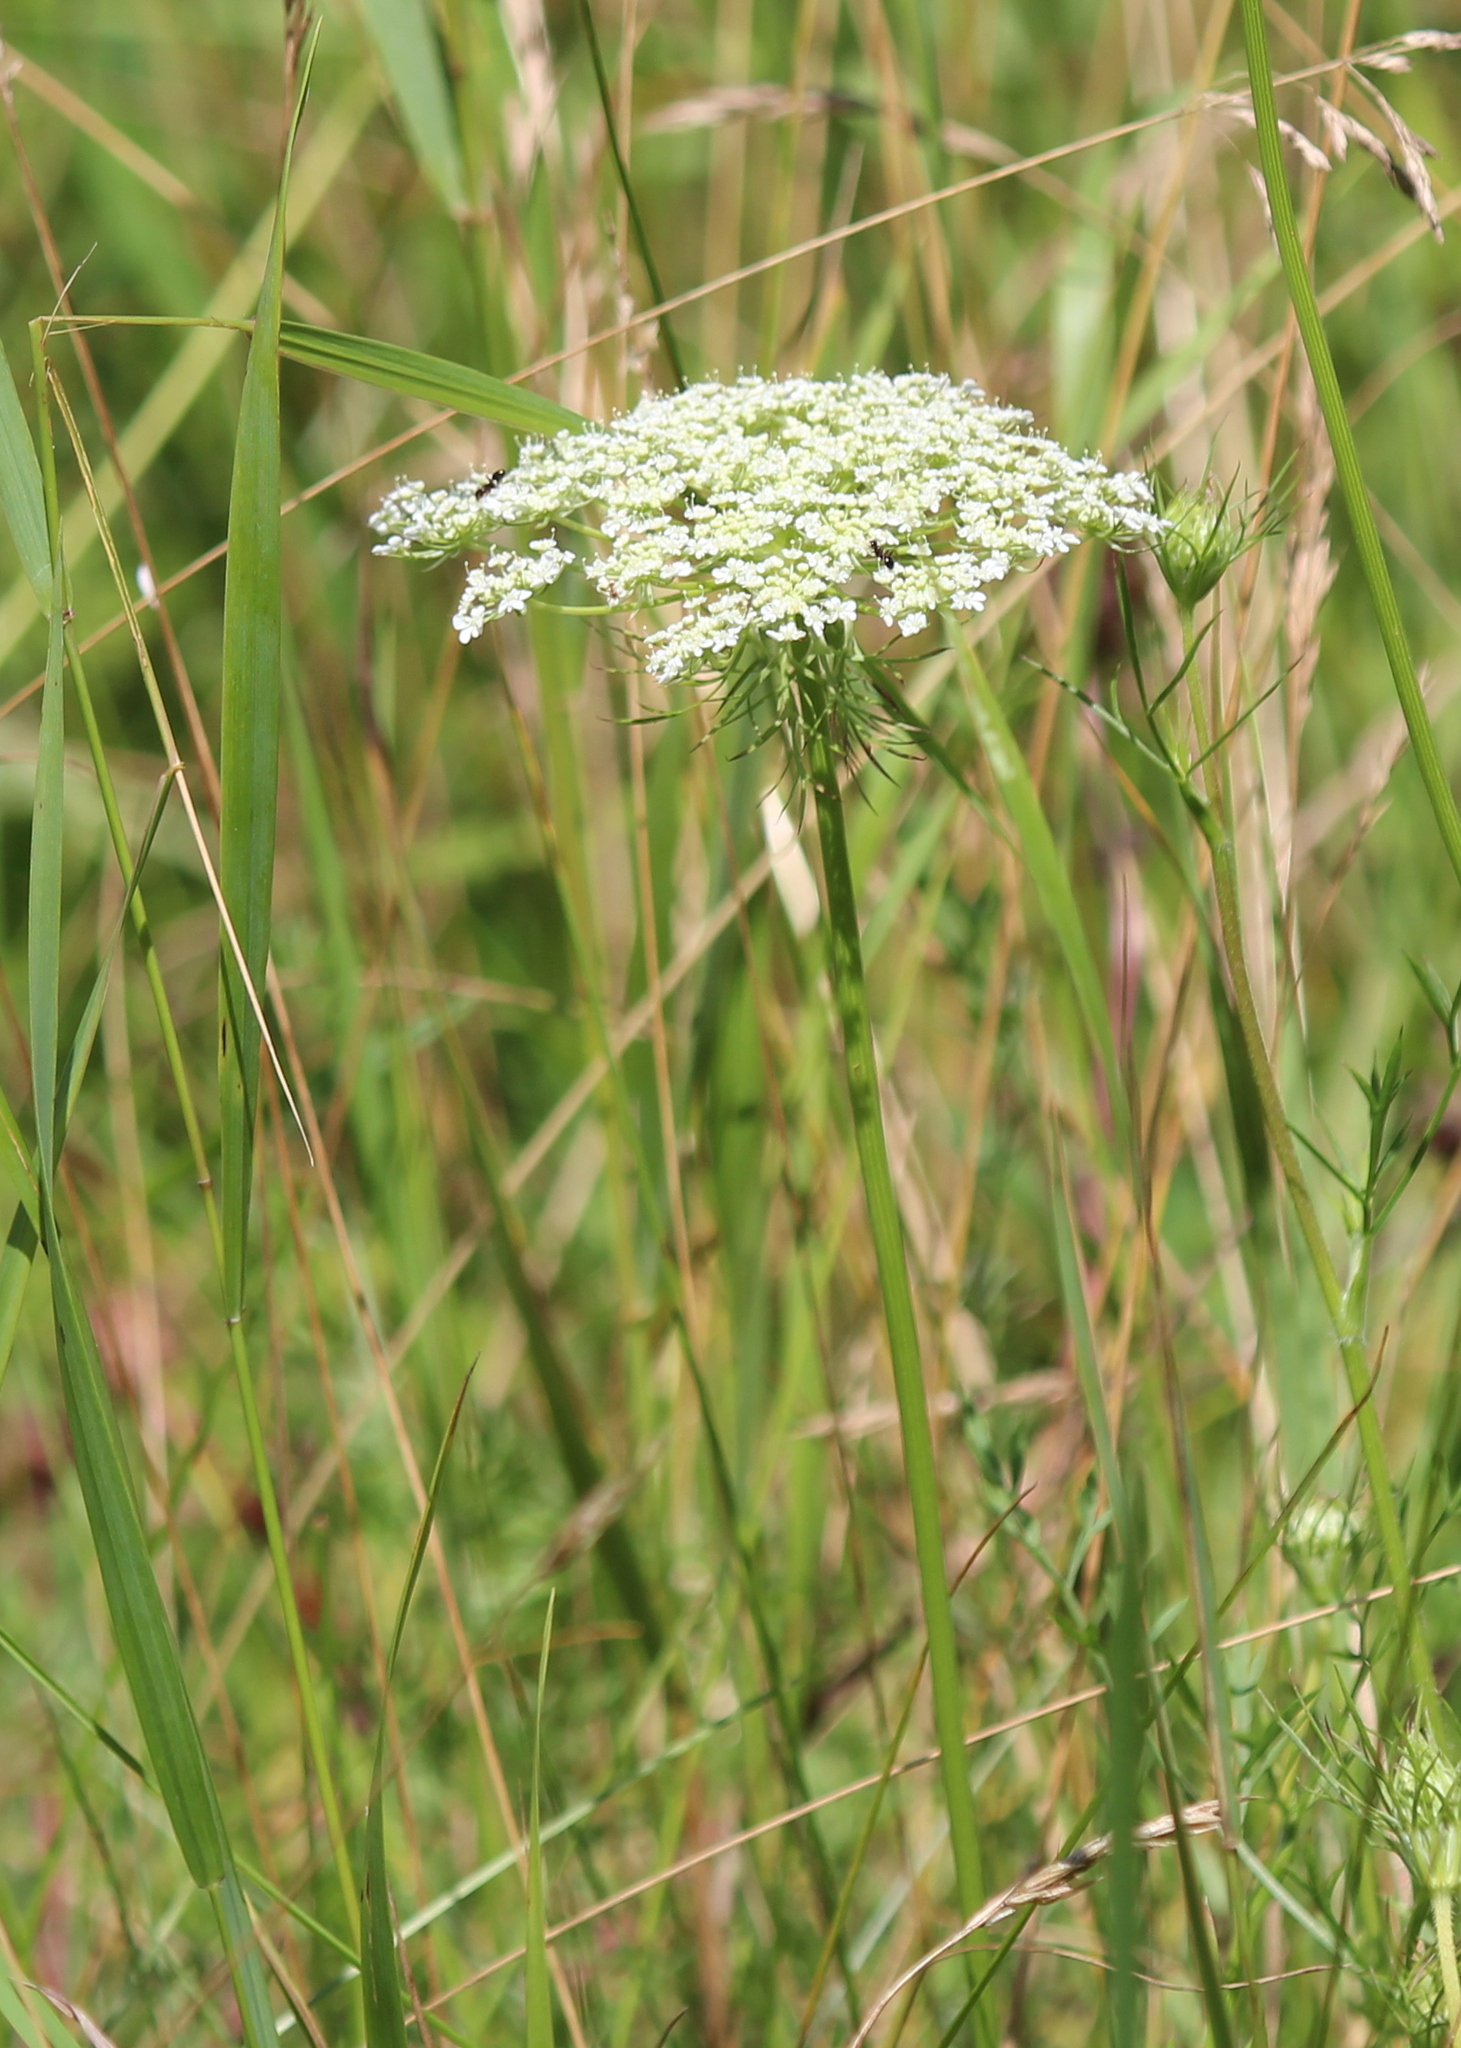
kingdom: Plantae
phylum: Tracheophyta
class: Magnoliopsida
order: Apiales
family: Apiaceae
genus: Daucus
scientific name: Daucus carota
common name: Wild carrot
